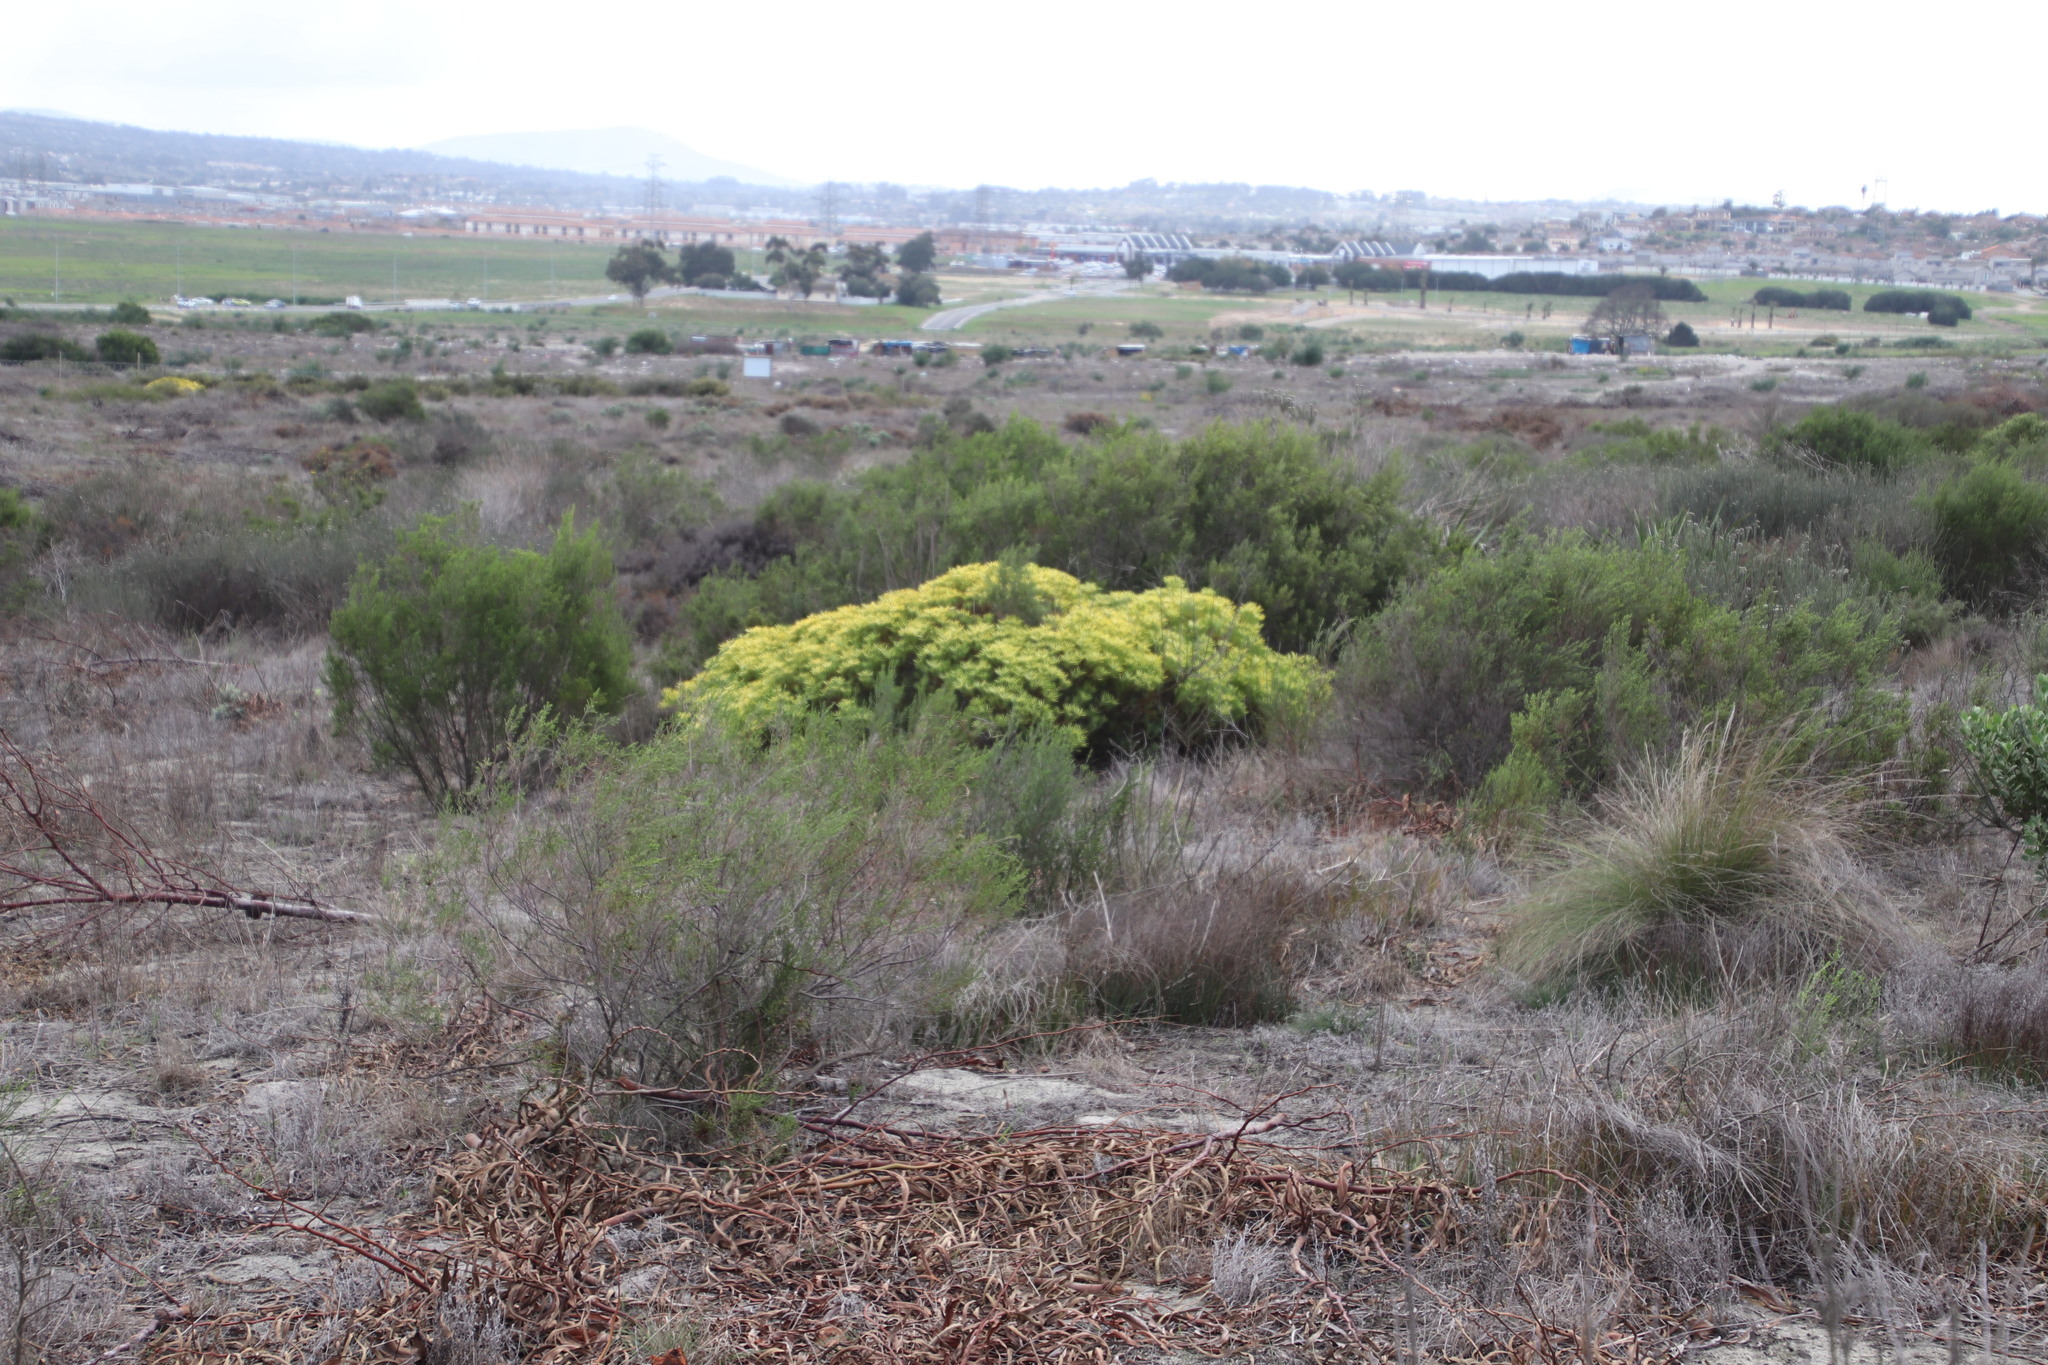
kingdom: Plantae
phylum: Tracheophyta
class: Magnoliopsida
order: Proteales
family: Proteaceae
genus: Leucadendron
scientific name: Leucadendron salignum
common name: Common sunshine conebush
